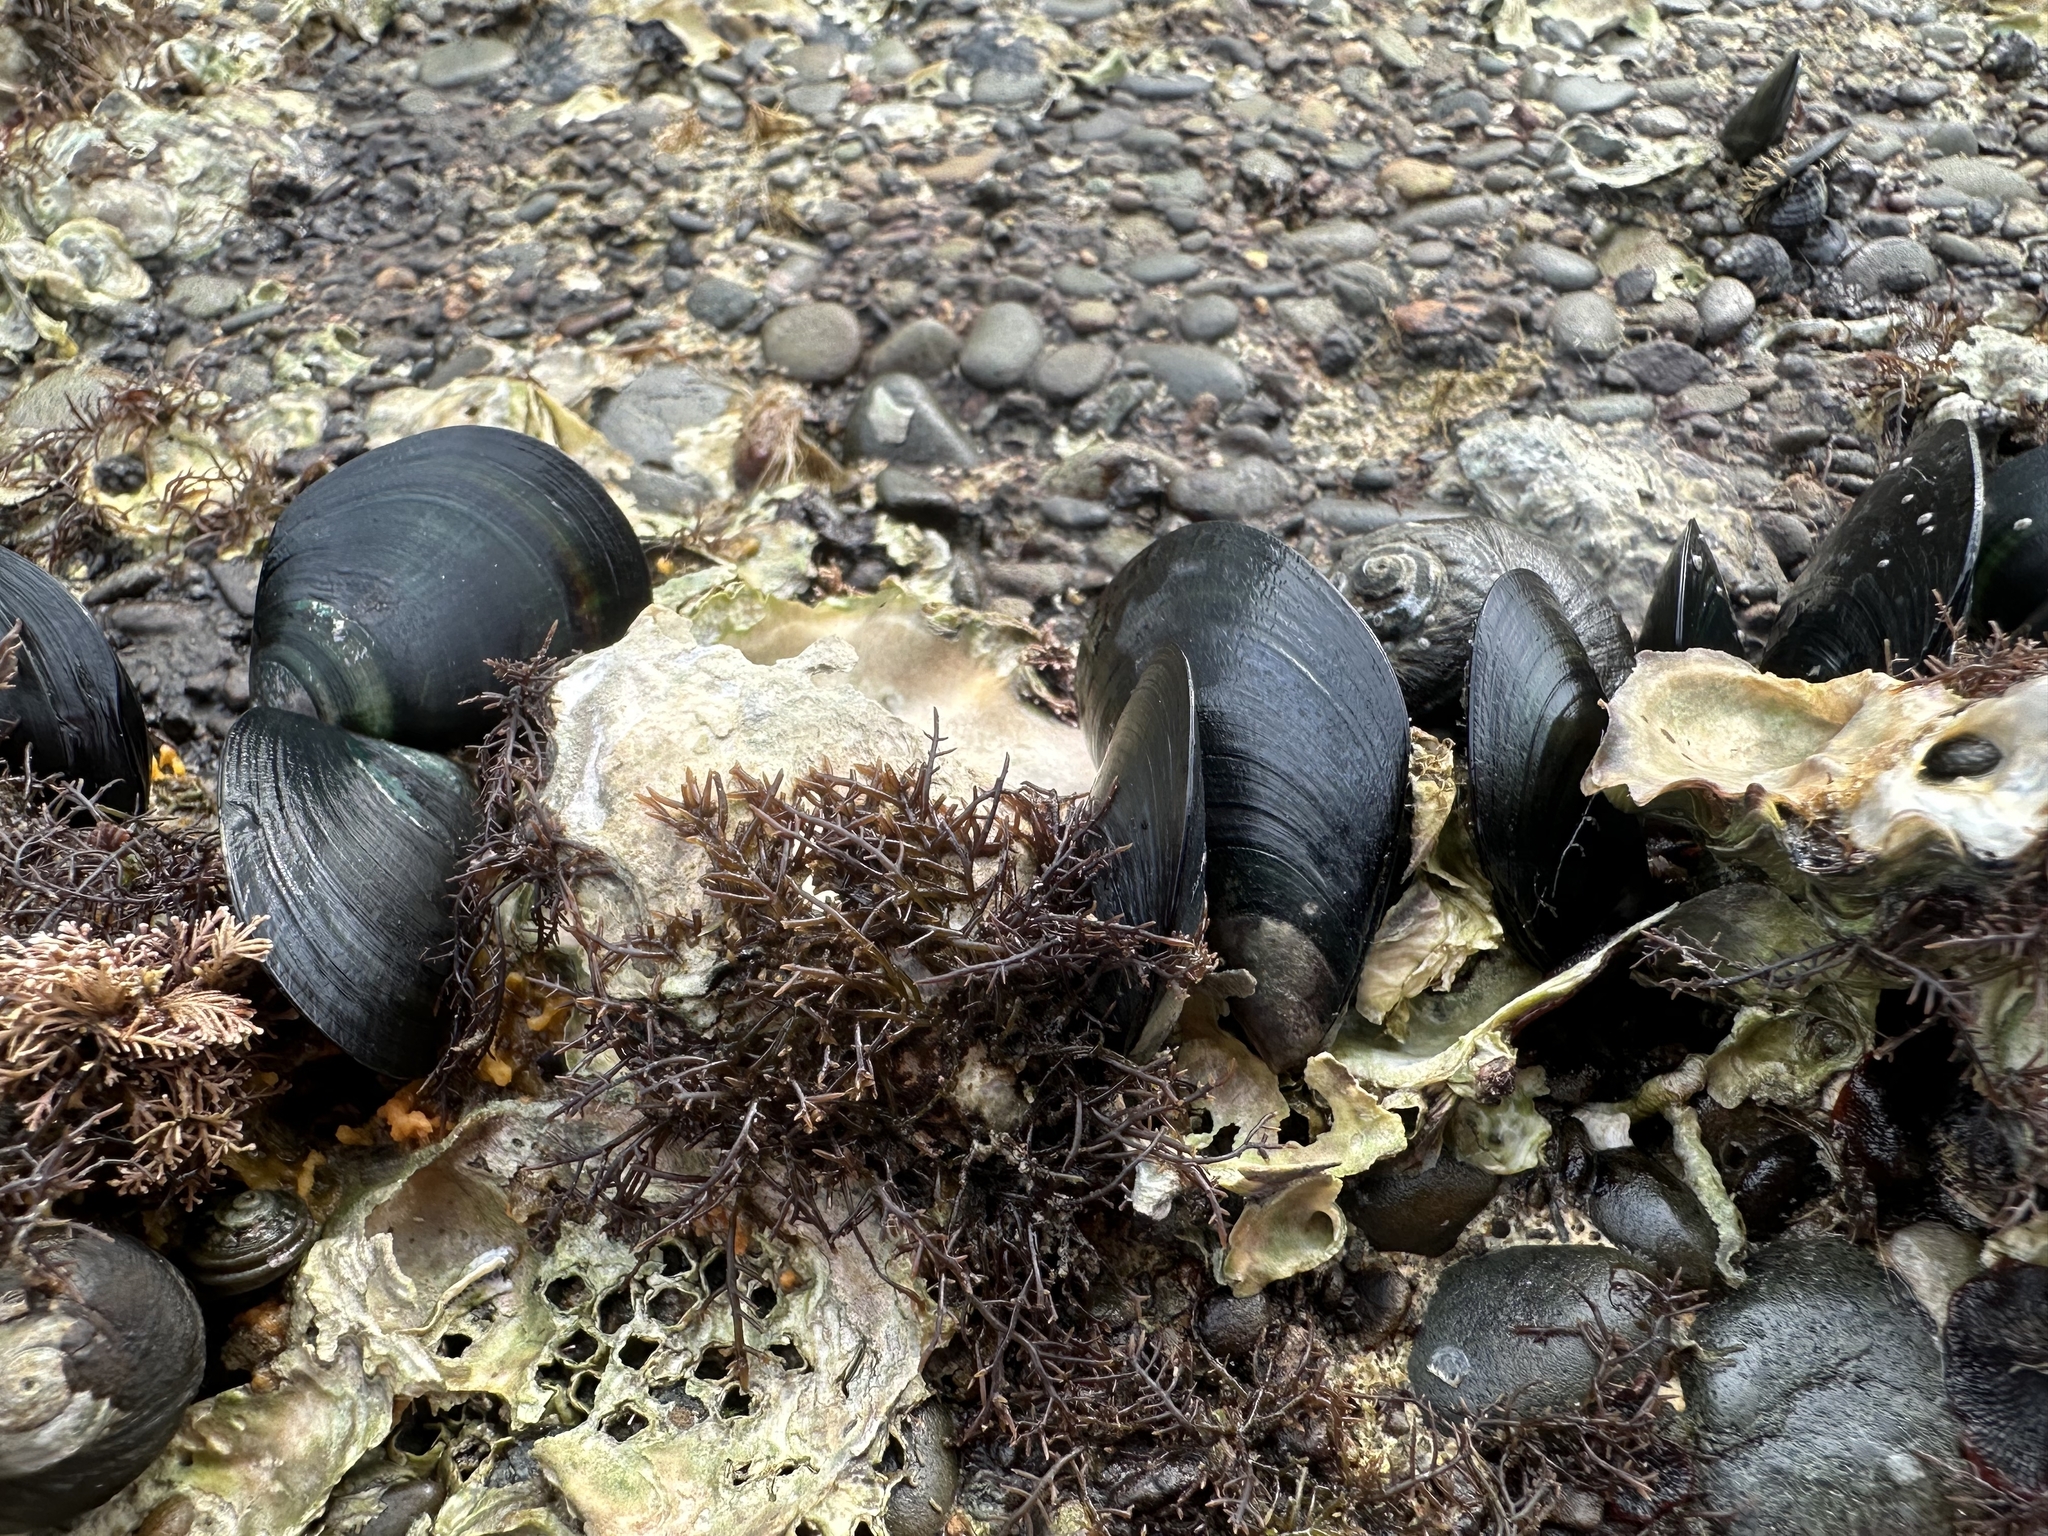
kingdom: Animalia
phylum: Mollusca
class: Bivalvia
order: Mytilida
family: Mytilidae
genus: Perna
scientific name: Perna canaliculus
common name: New zealand greenshelltm
